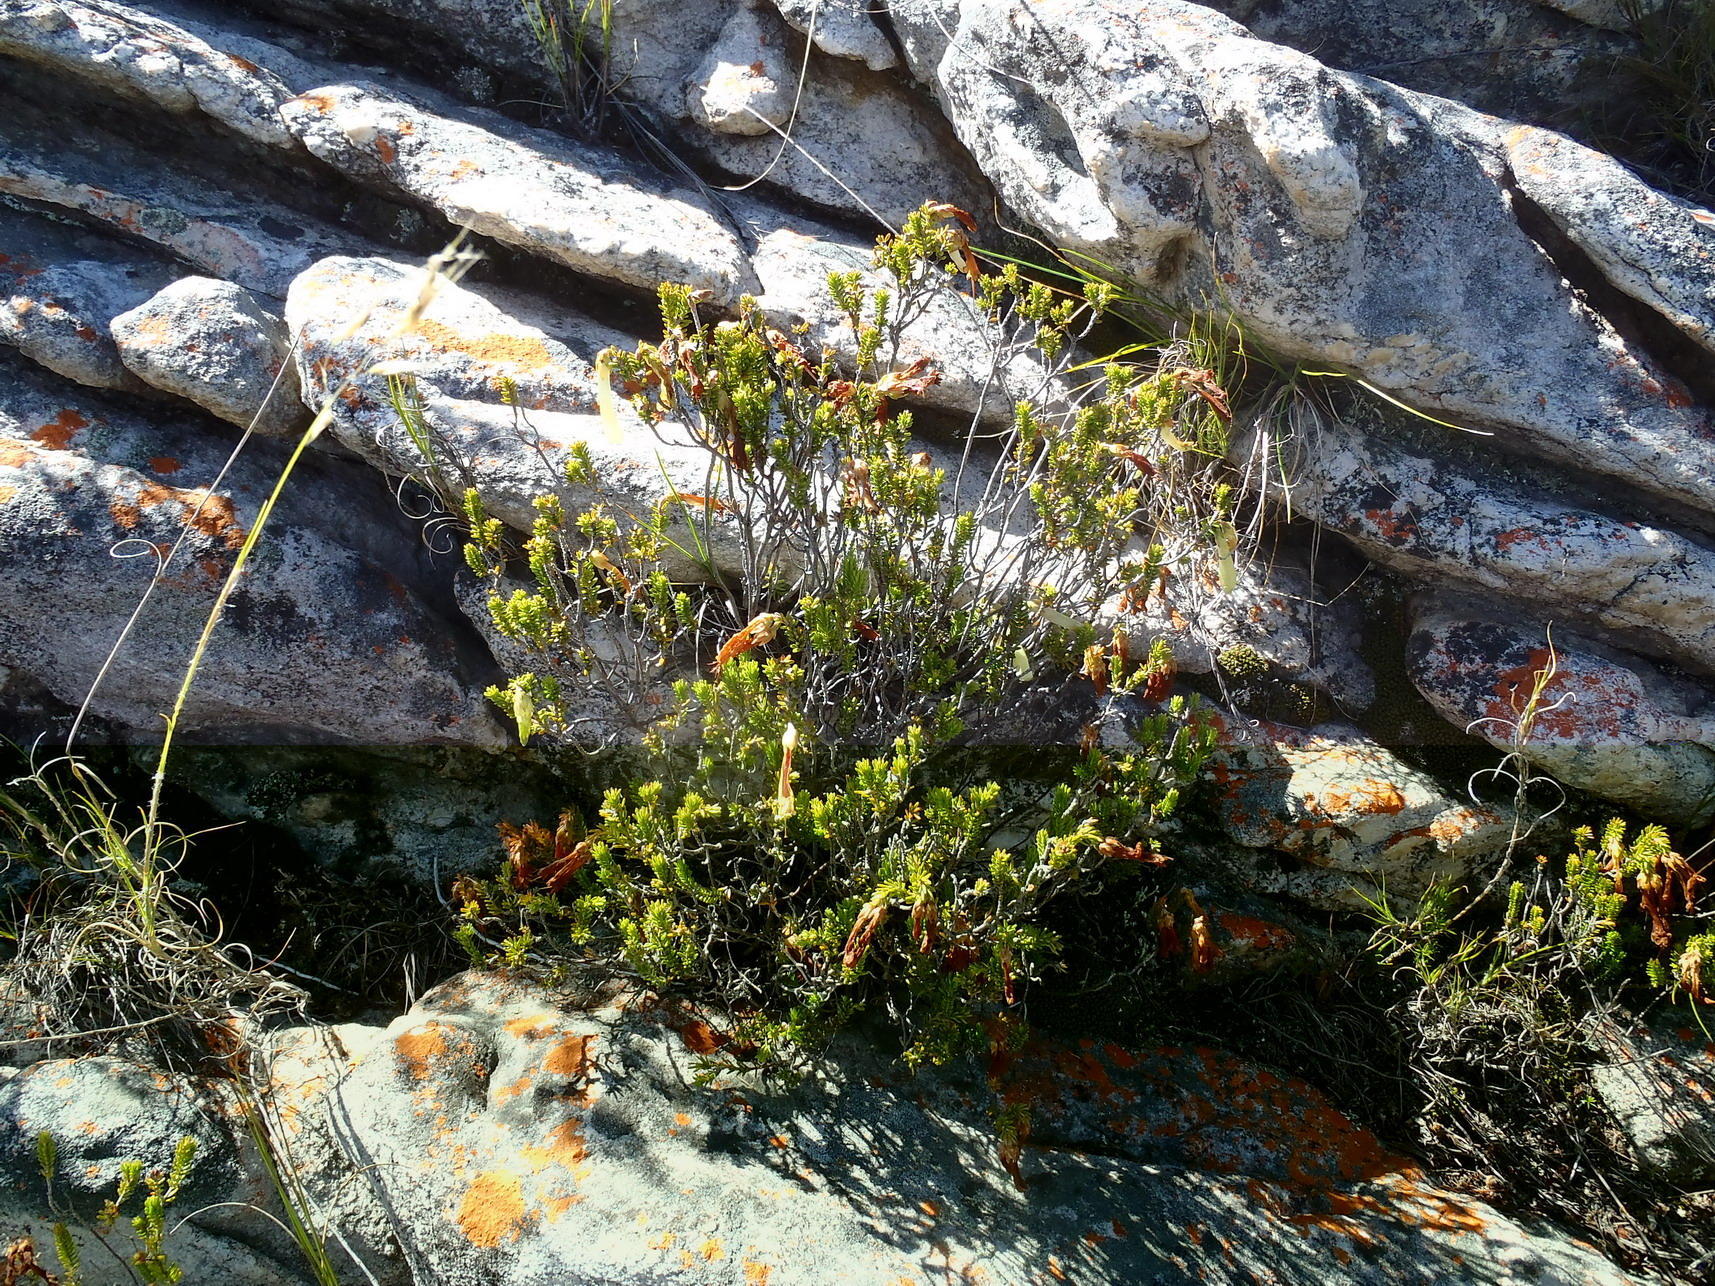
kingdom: Plantae
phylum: Tracheophyta
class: Magnoliopsida
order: Ericales
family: Ericaceae
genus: Erica
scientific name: Erica viridiflora
